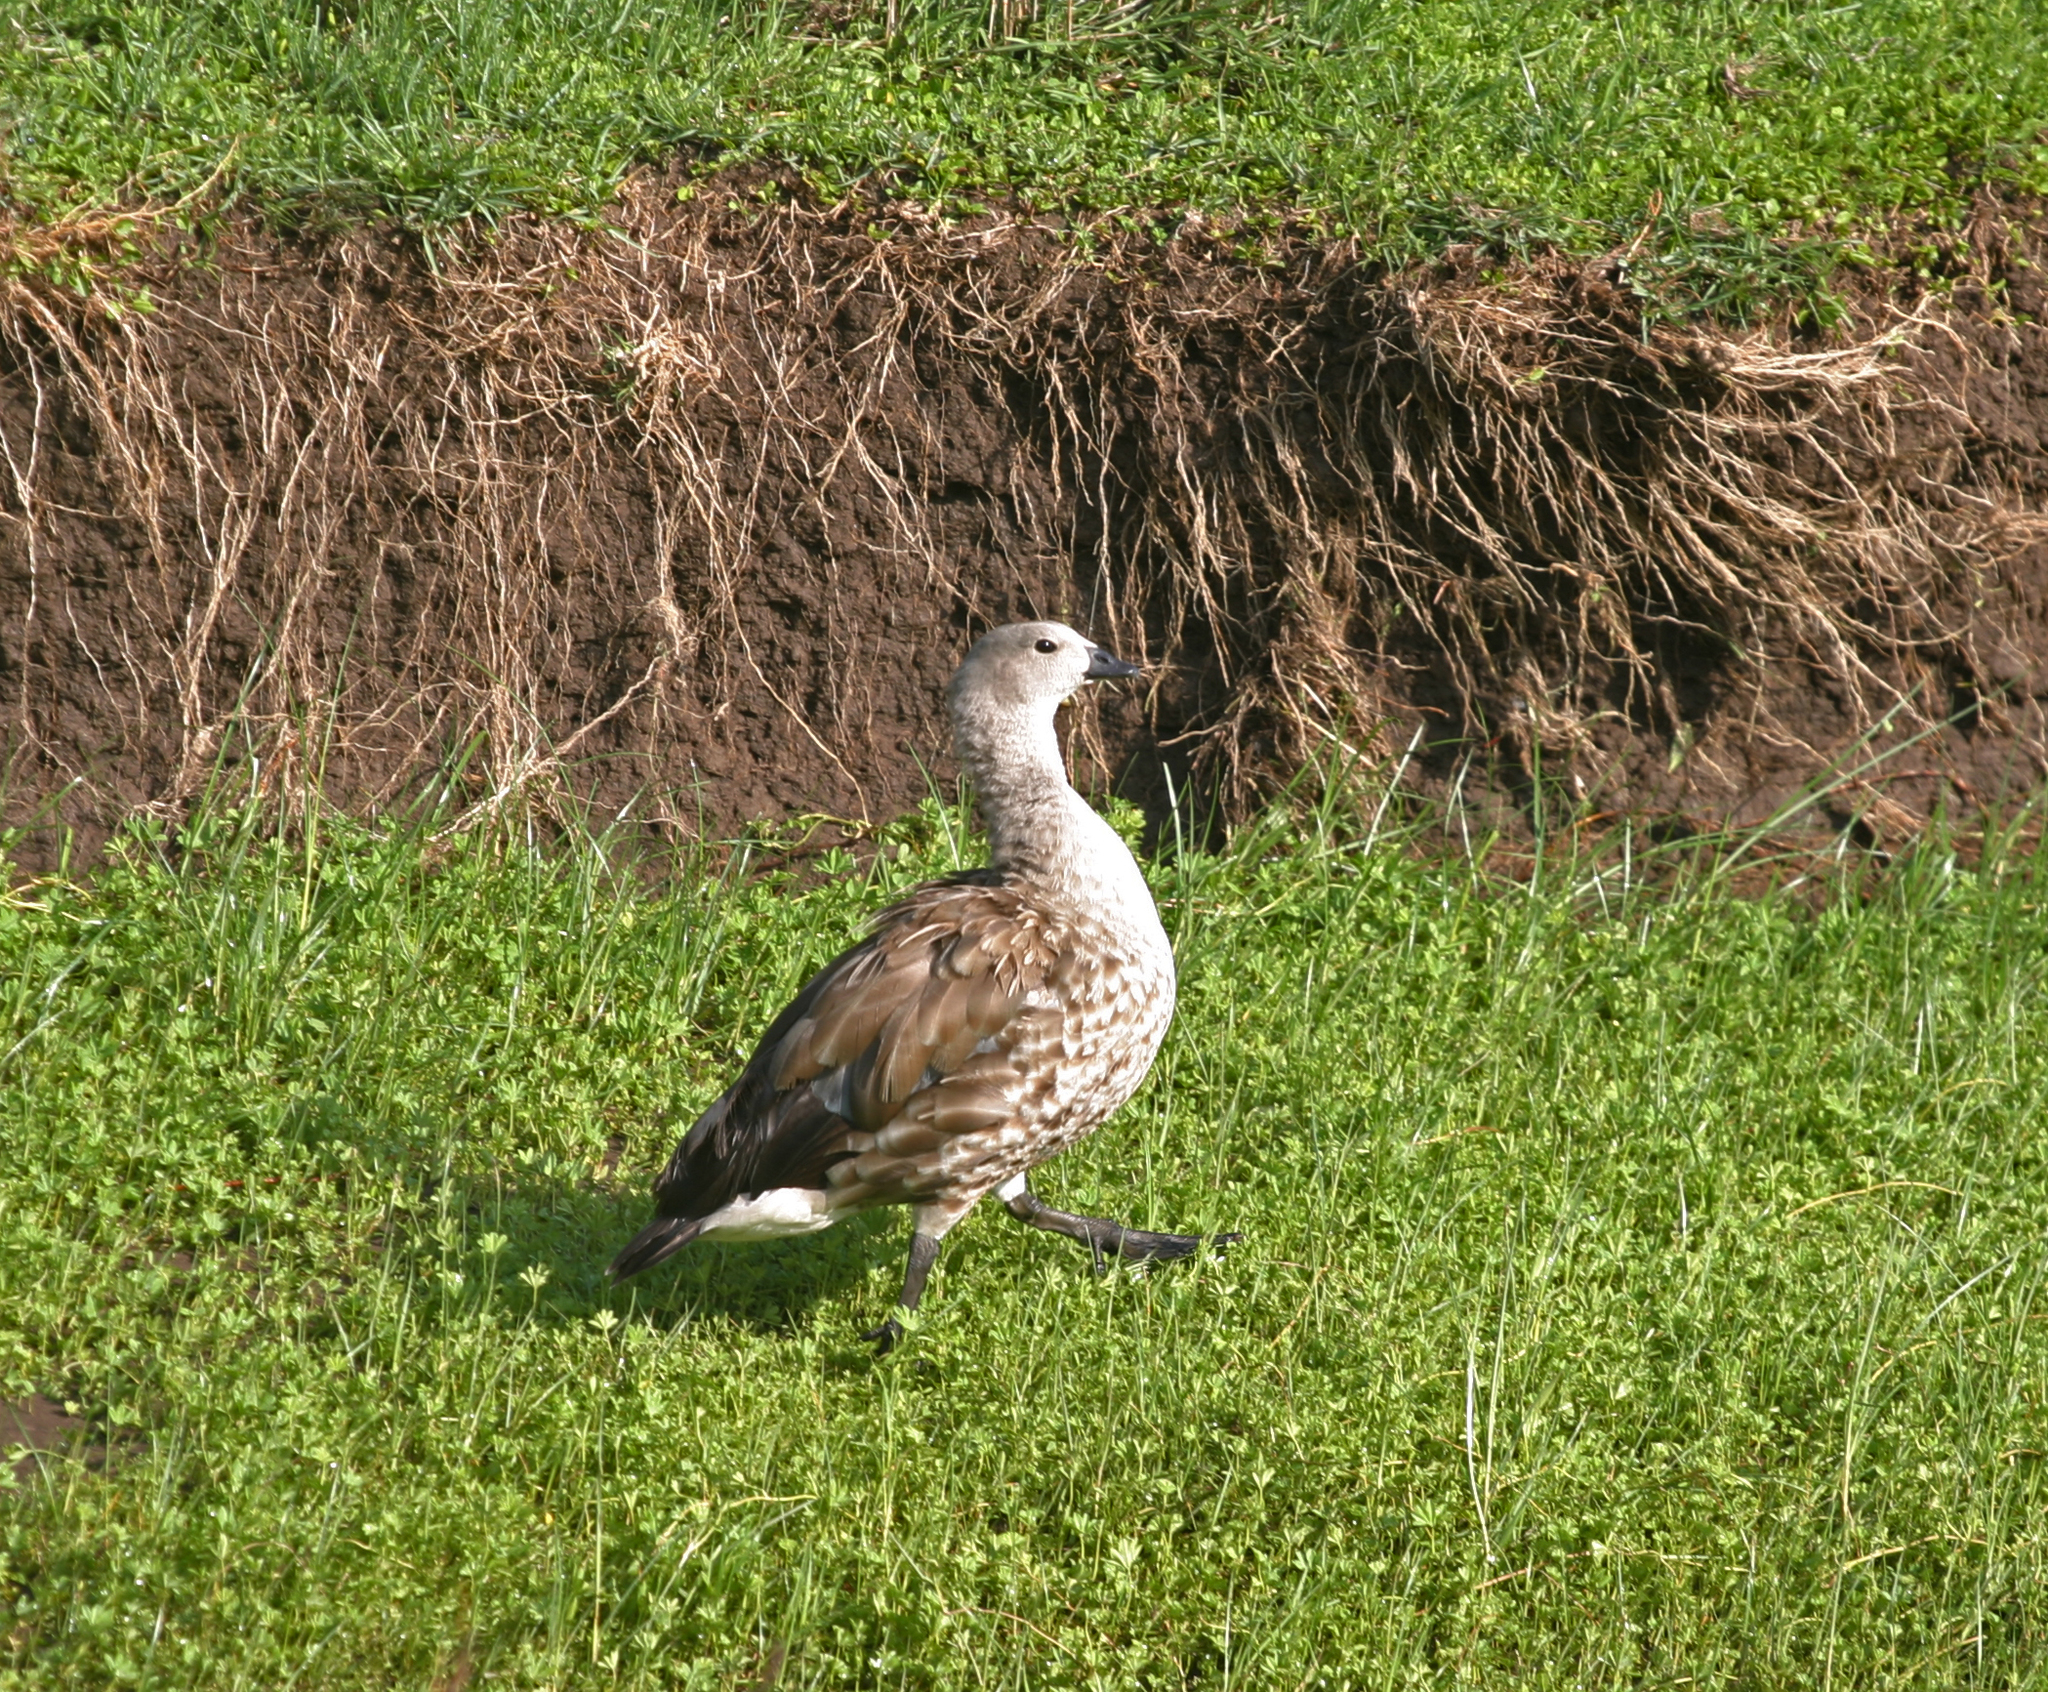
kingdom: Animalia
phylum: Chordata
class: Aves
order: Anseriformes
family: Anatidae
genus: Cyanochen
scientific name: Cyanochen cyanoptera
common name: Blue-winged goose
